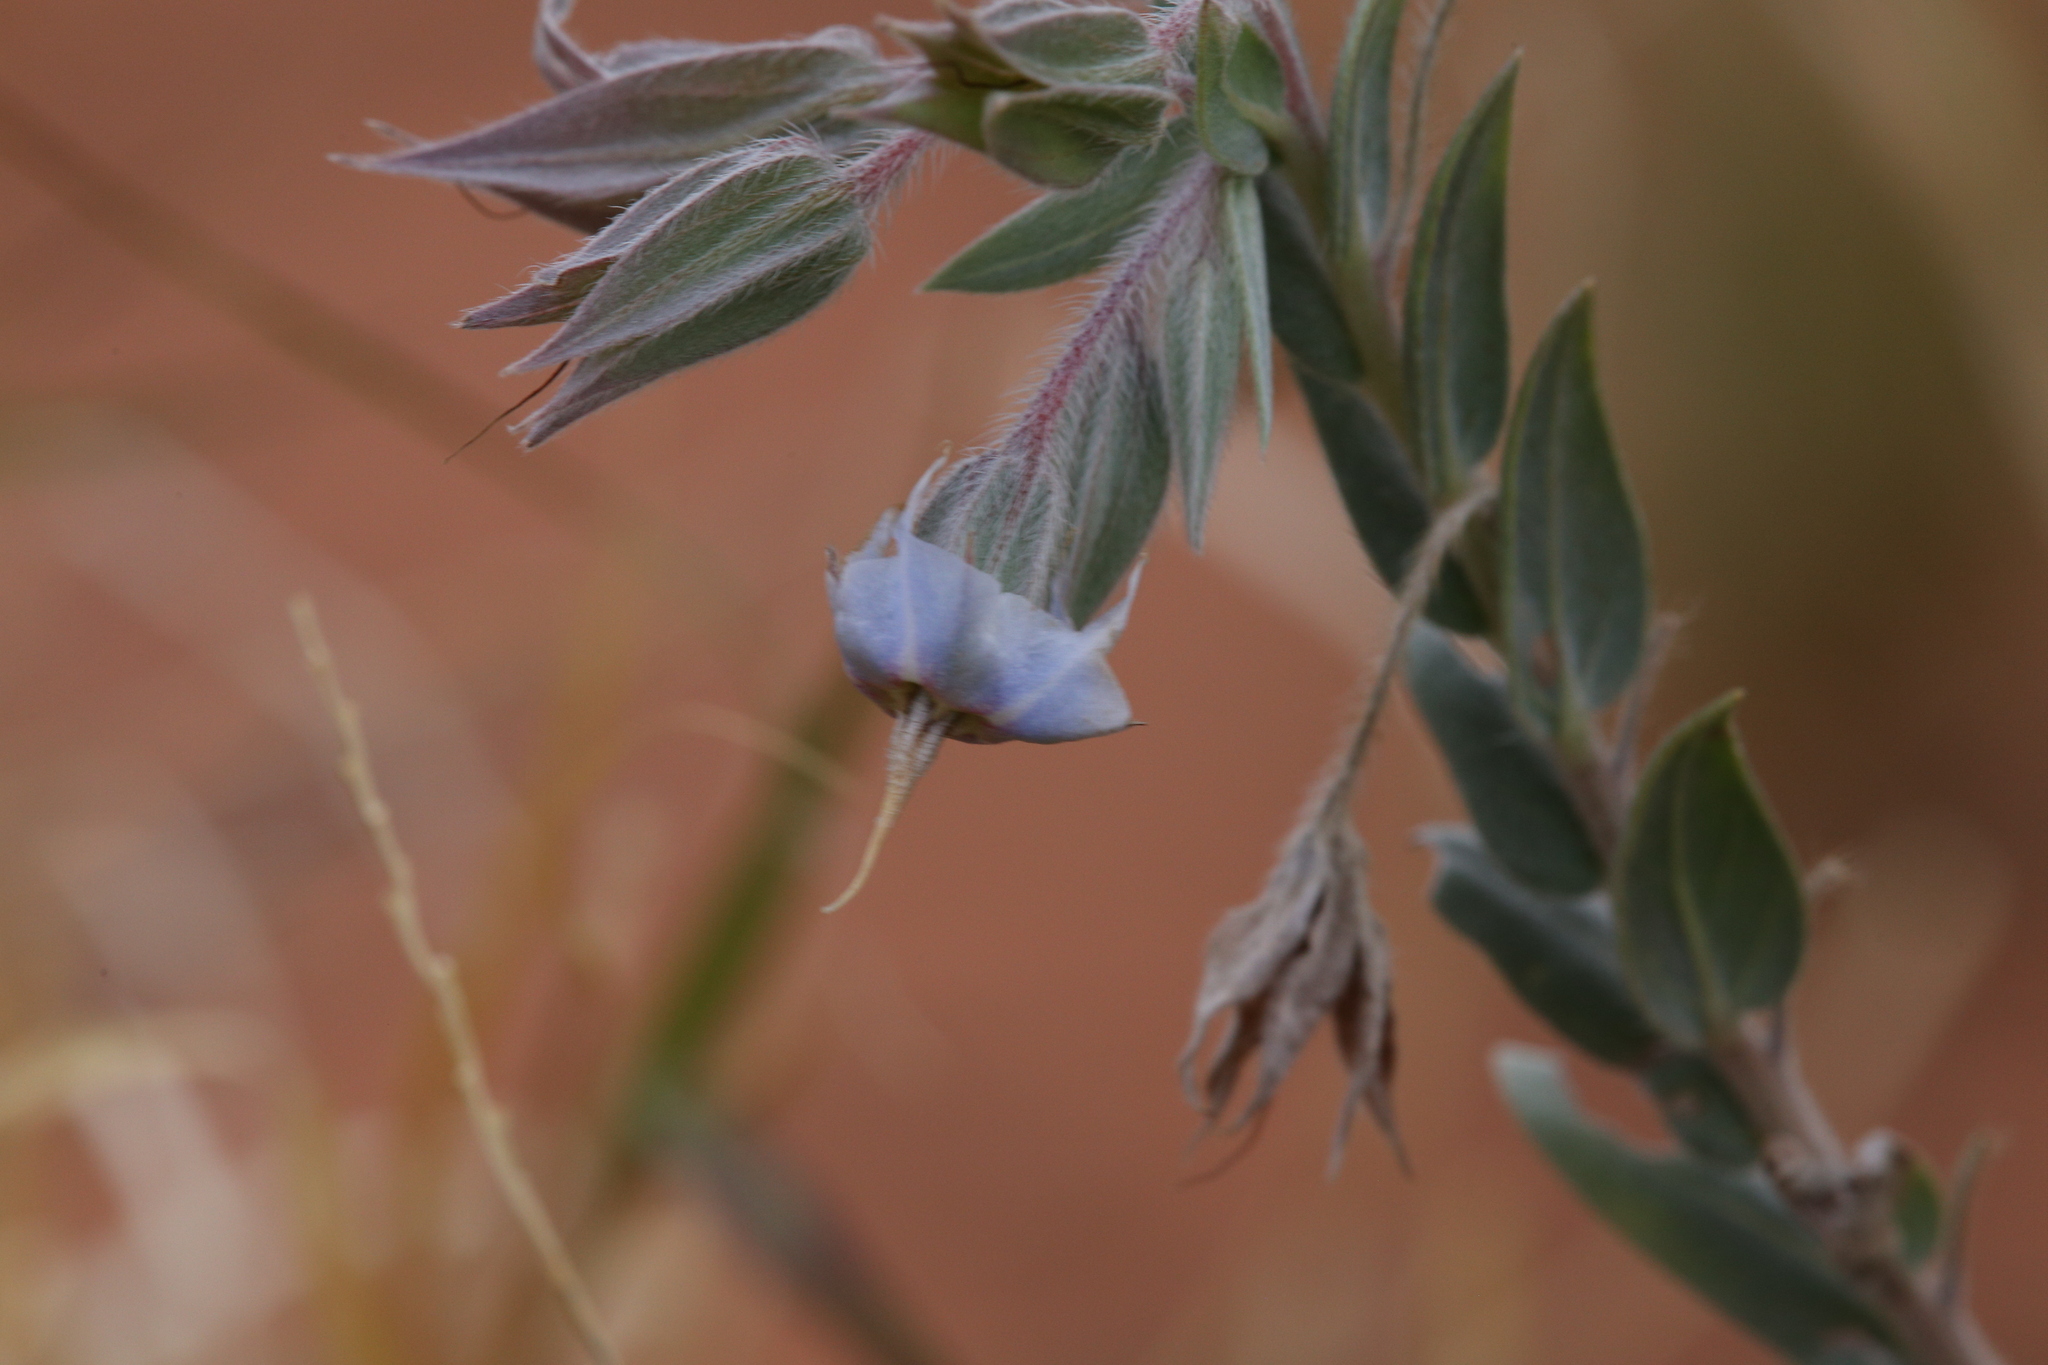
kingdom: Plantae
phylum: Tracheophyta
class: Magnoliopsida
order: Boraginales
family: Boraginaceae
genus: Trichodesma
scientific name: Trichodesma zeylanicum
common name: Camelbush
